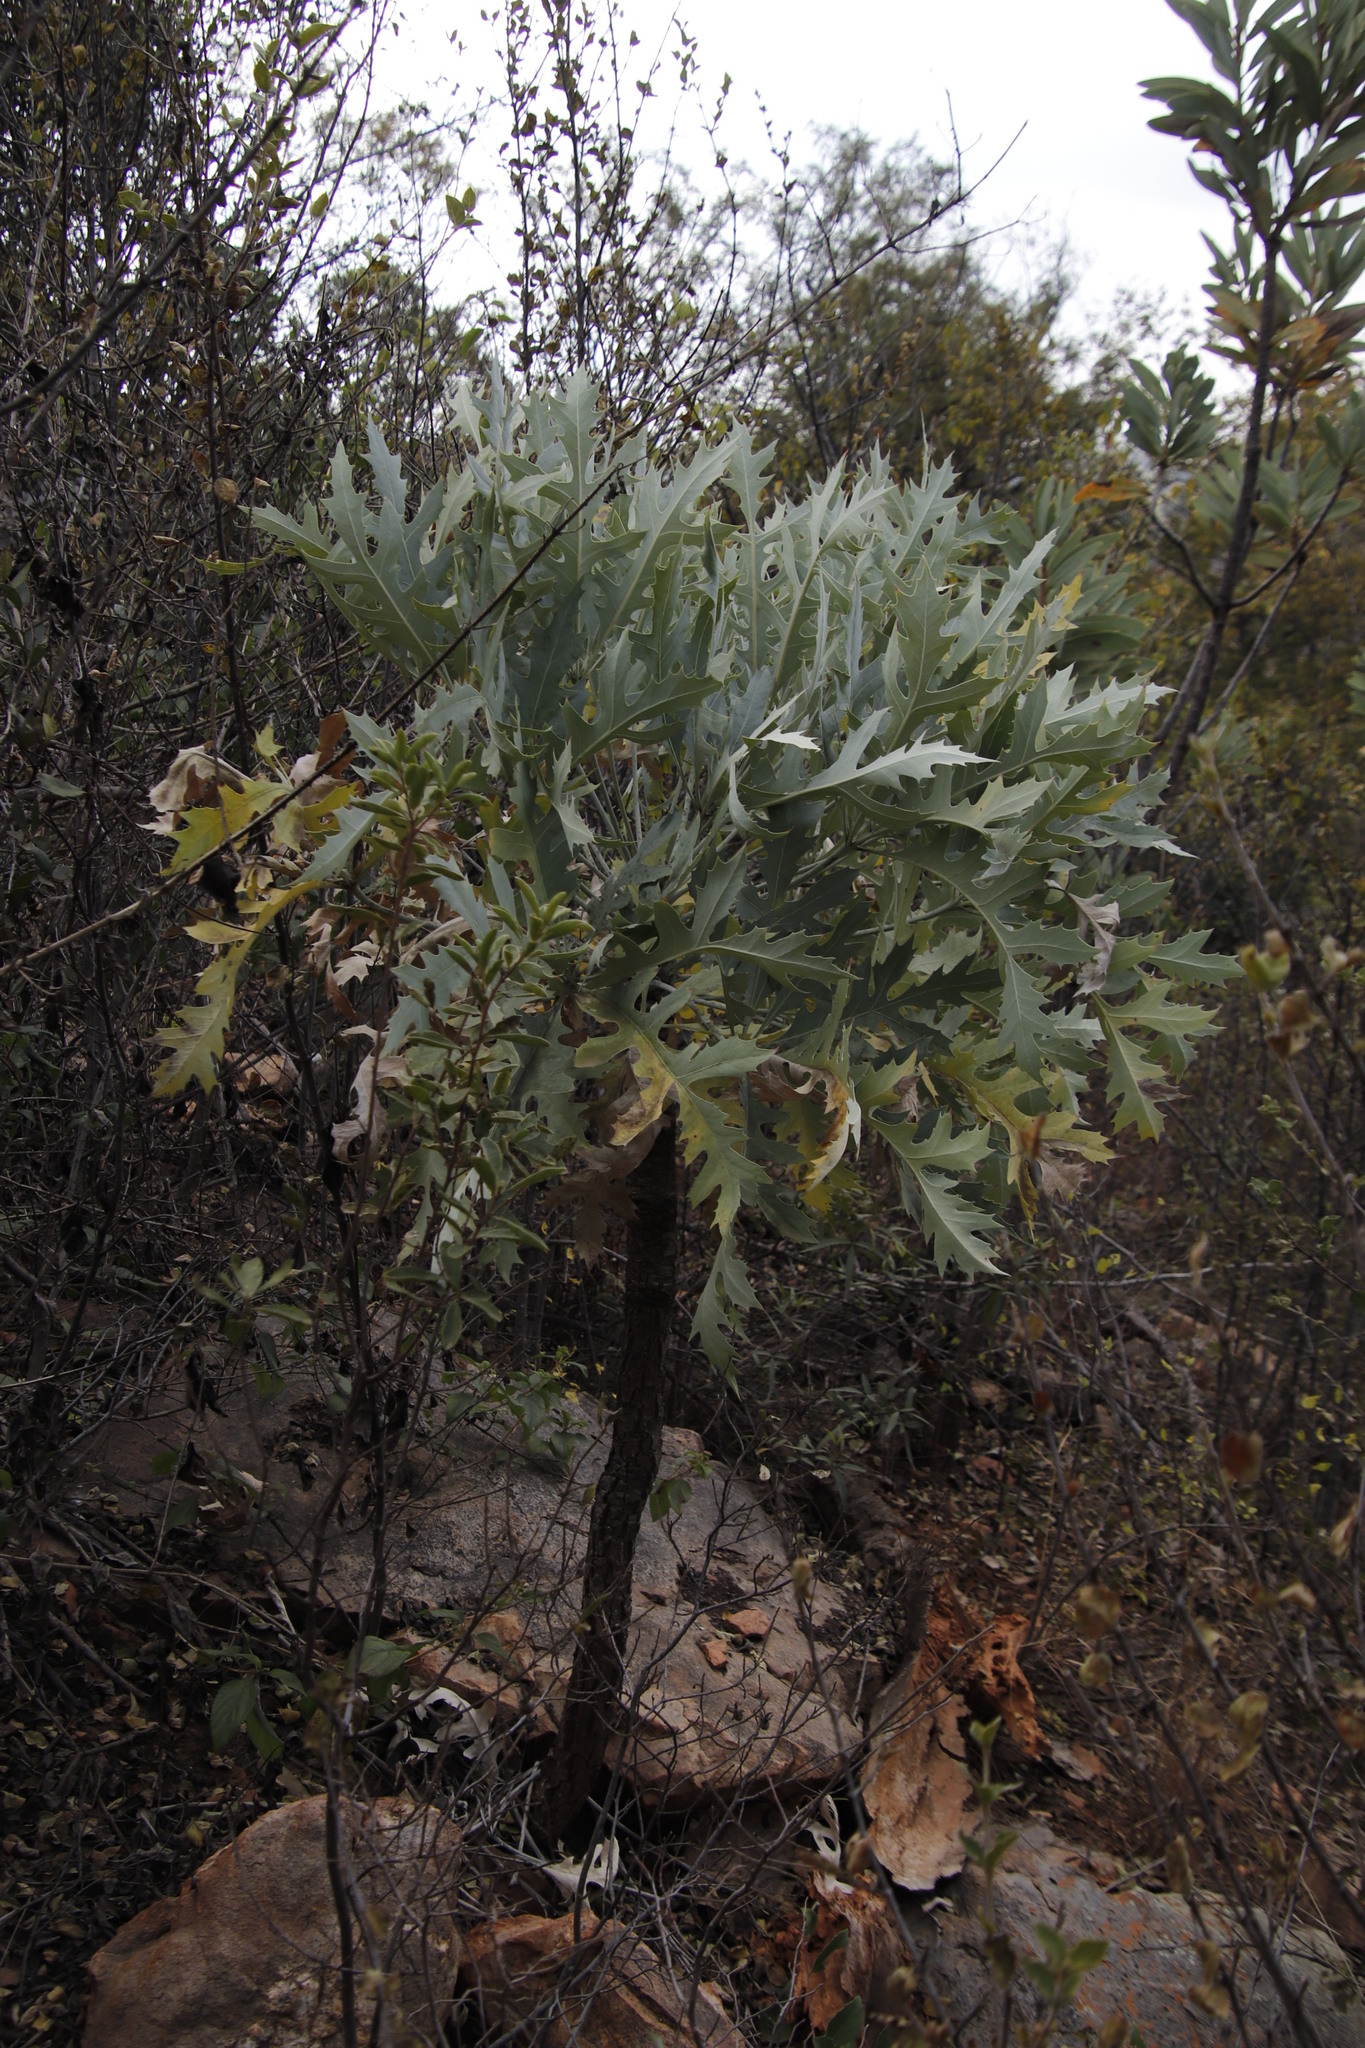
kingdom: Plantae
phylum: Tracheophyta
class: Magnoliopsida
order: Apiales
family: Araliaceae
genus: Cussonia
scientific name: Cussonia paniculata
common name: Cabbagetree
